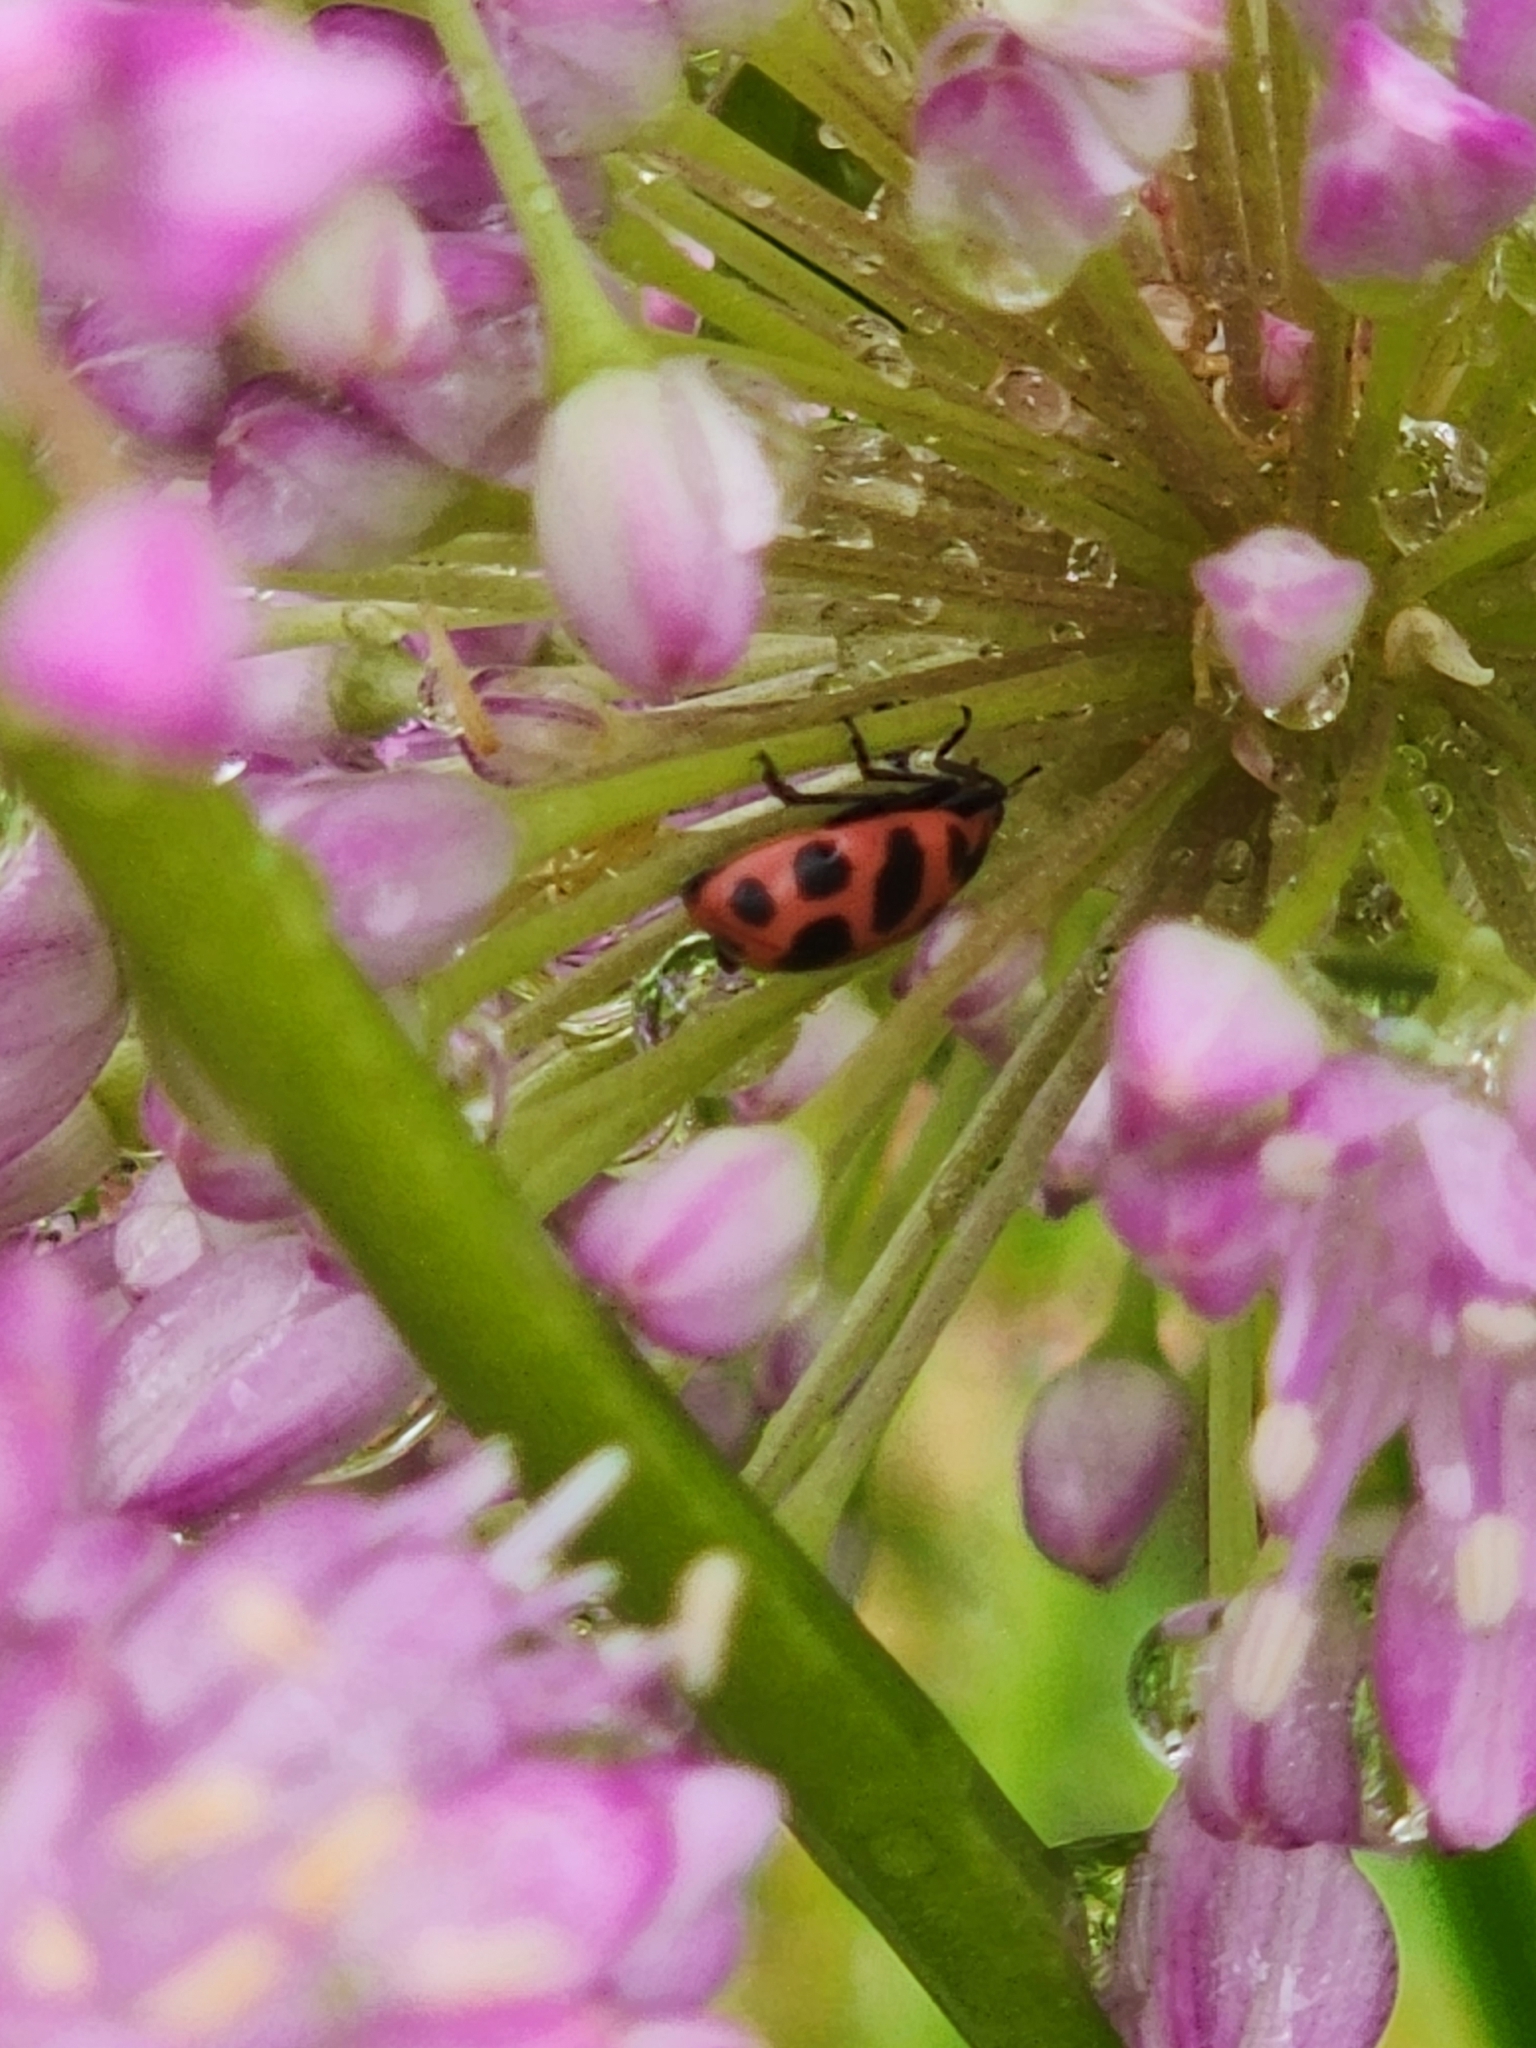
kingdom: Animalia
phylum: Arthropoda
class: Insecta
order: Coleoptera
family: Coccinellidae
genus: Coleomegilla
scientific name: Coleomegilla maculata
